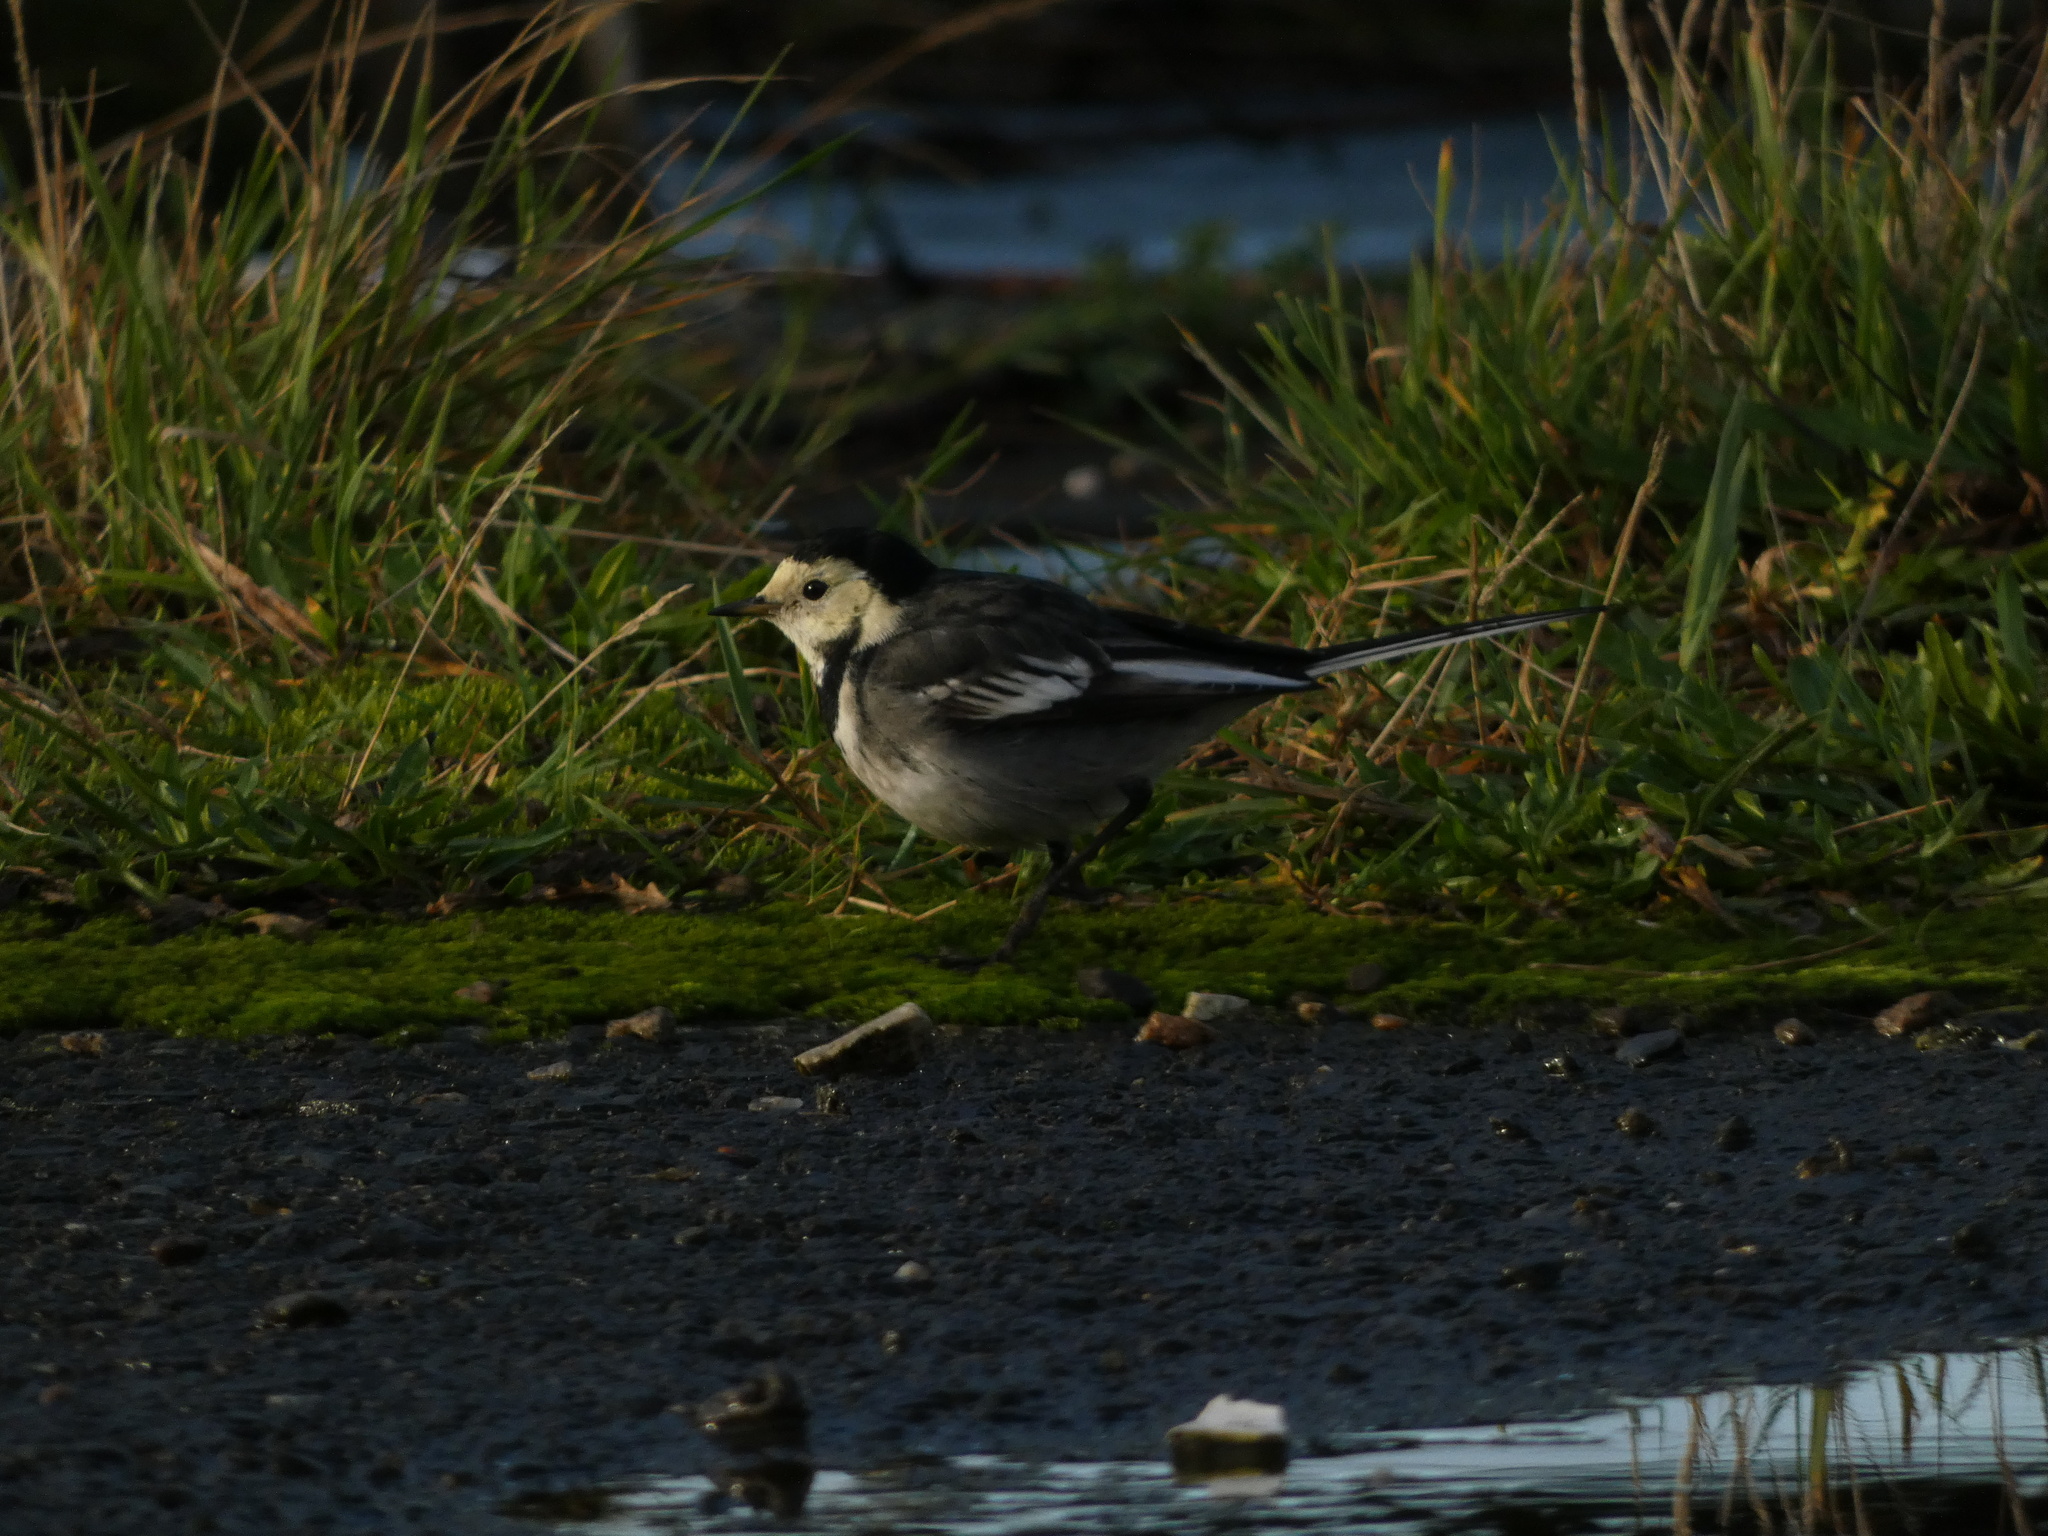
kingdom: Animalia
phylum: Chordata
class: Aves
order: Passeriformes
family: Motacillidae
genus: Motacilla
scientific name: Motacilla alba
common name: White wagtail
